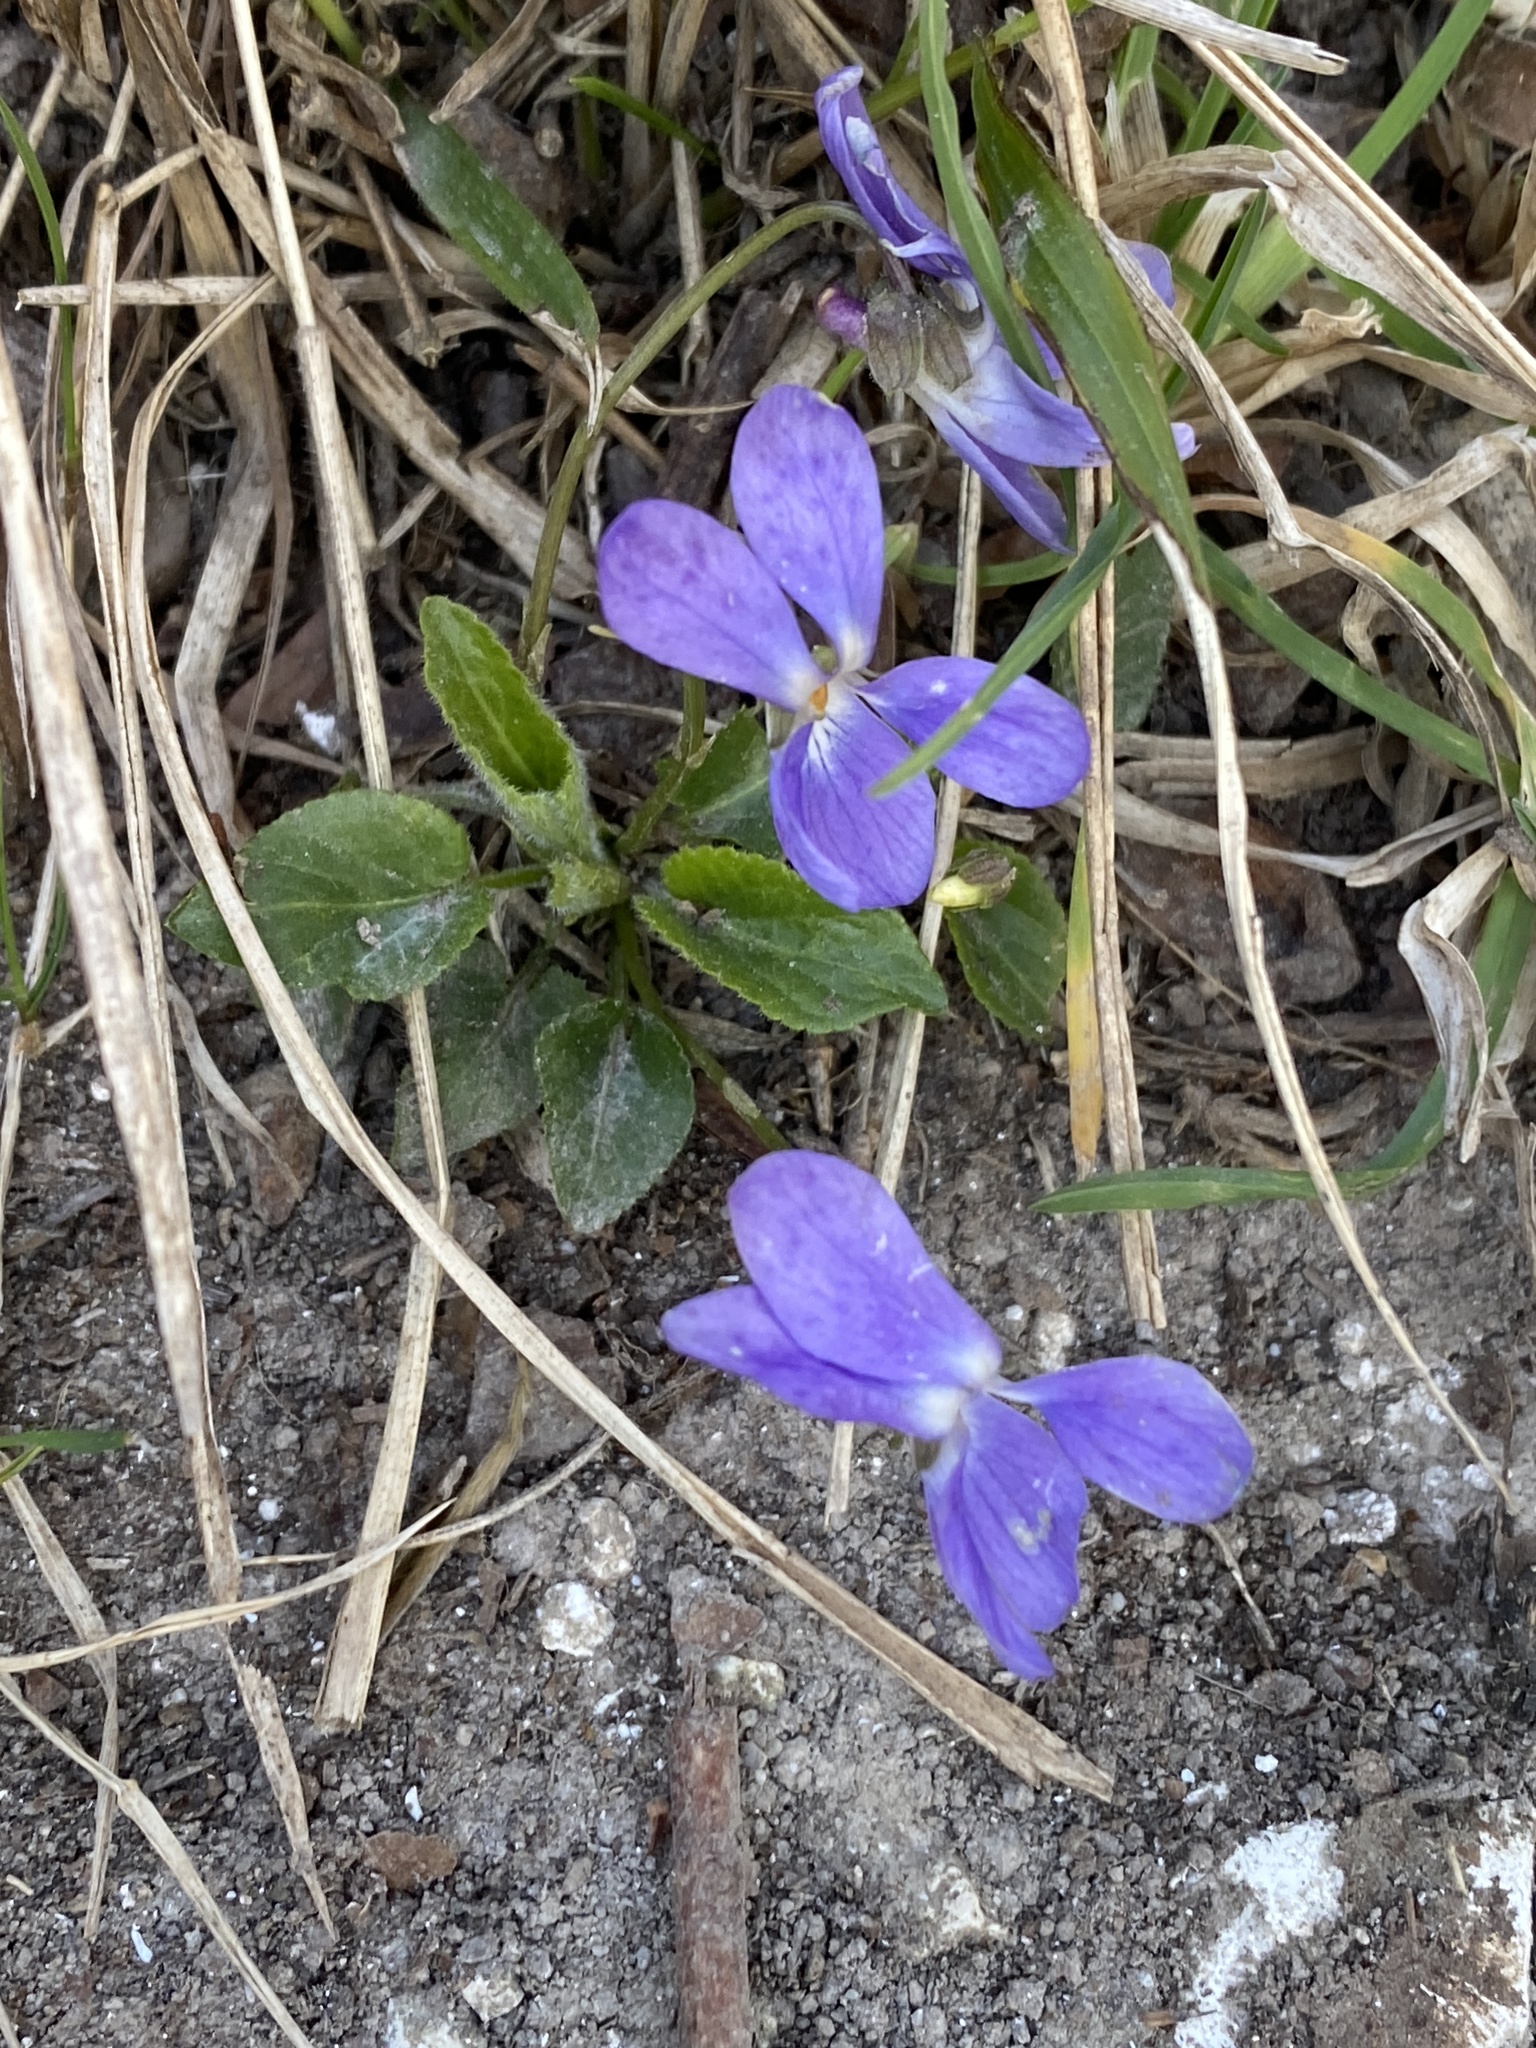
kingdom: Plantae
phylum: Tracheophyta
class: Magnoliopsida
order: Malpighiales
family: Violaceae
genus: Viola
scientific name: Viola hirta
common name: Hairy violet
